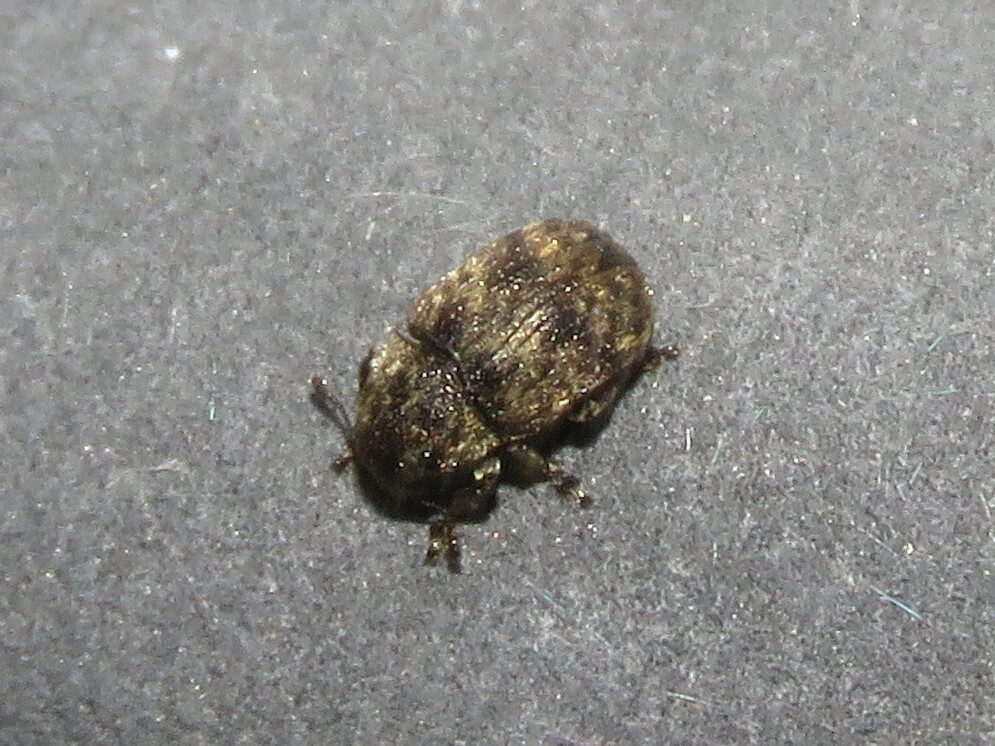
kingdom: Animalia
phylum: Arthropoda
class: Insecta
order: Coleoptera
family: Anthribidae
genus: Anthribus
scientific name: Anthribus nebulosus
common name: Fungus weevil
